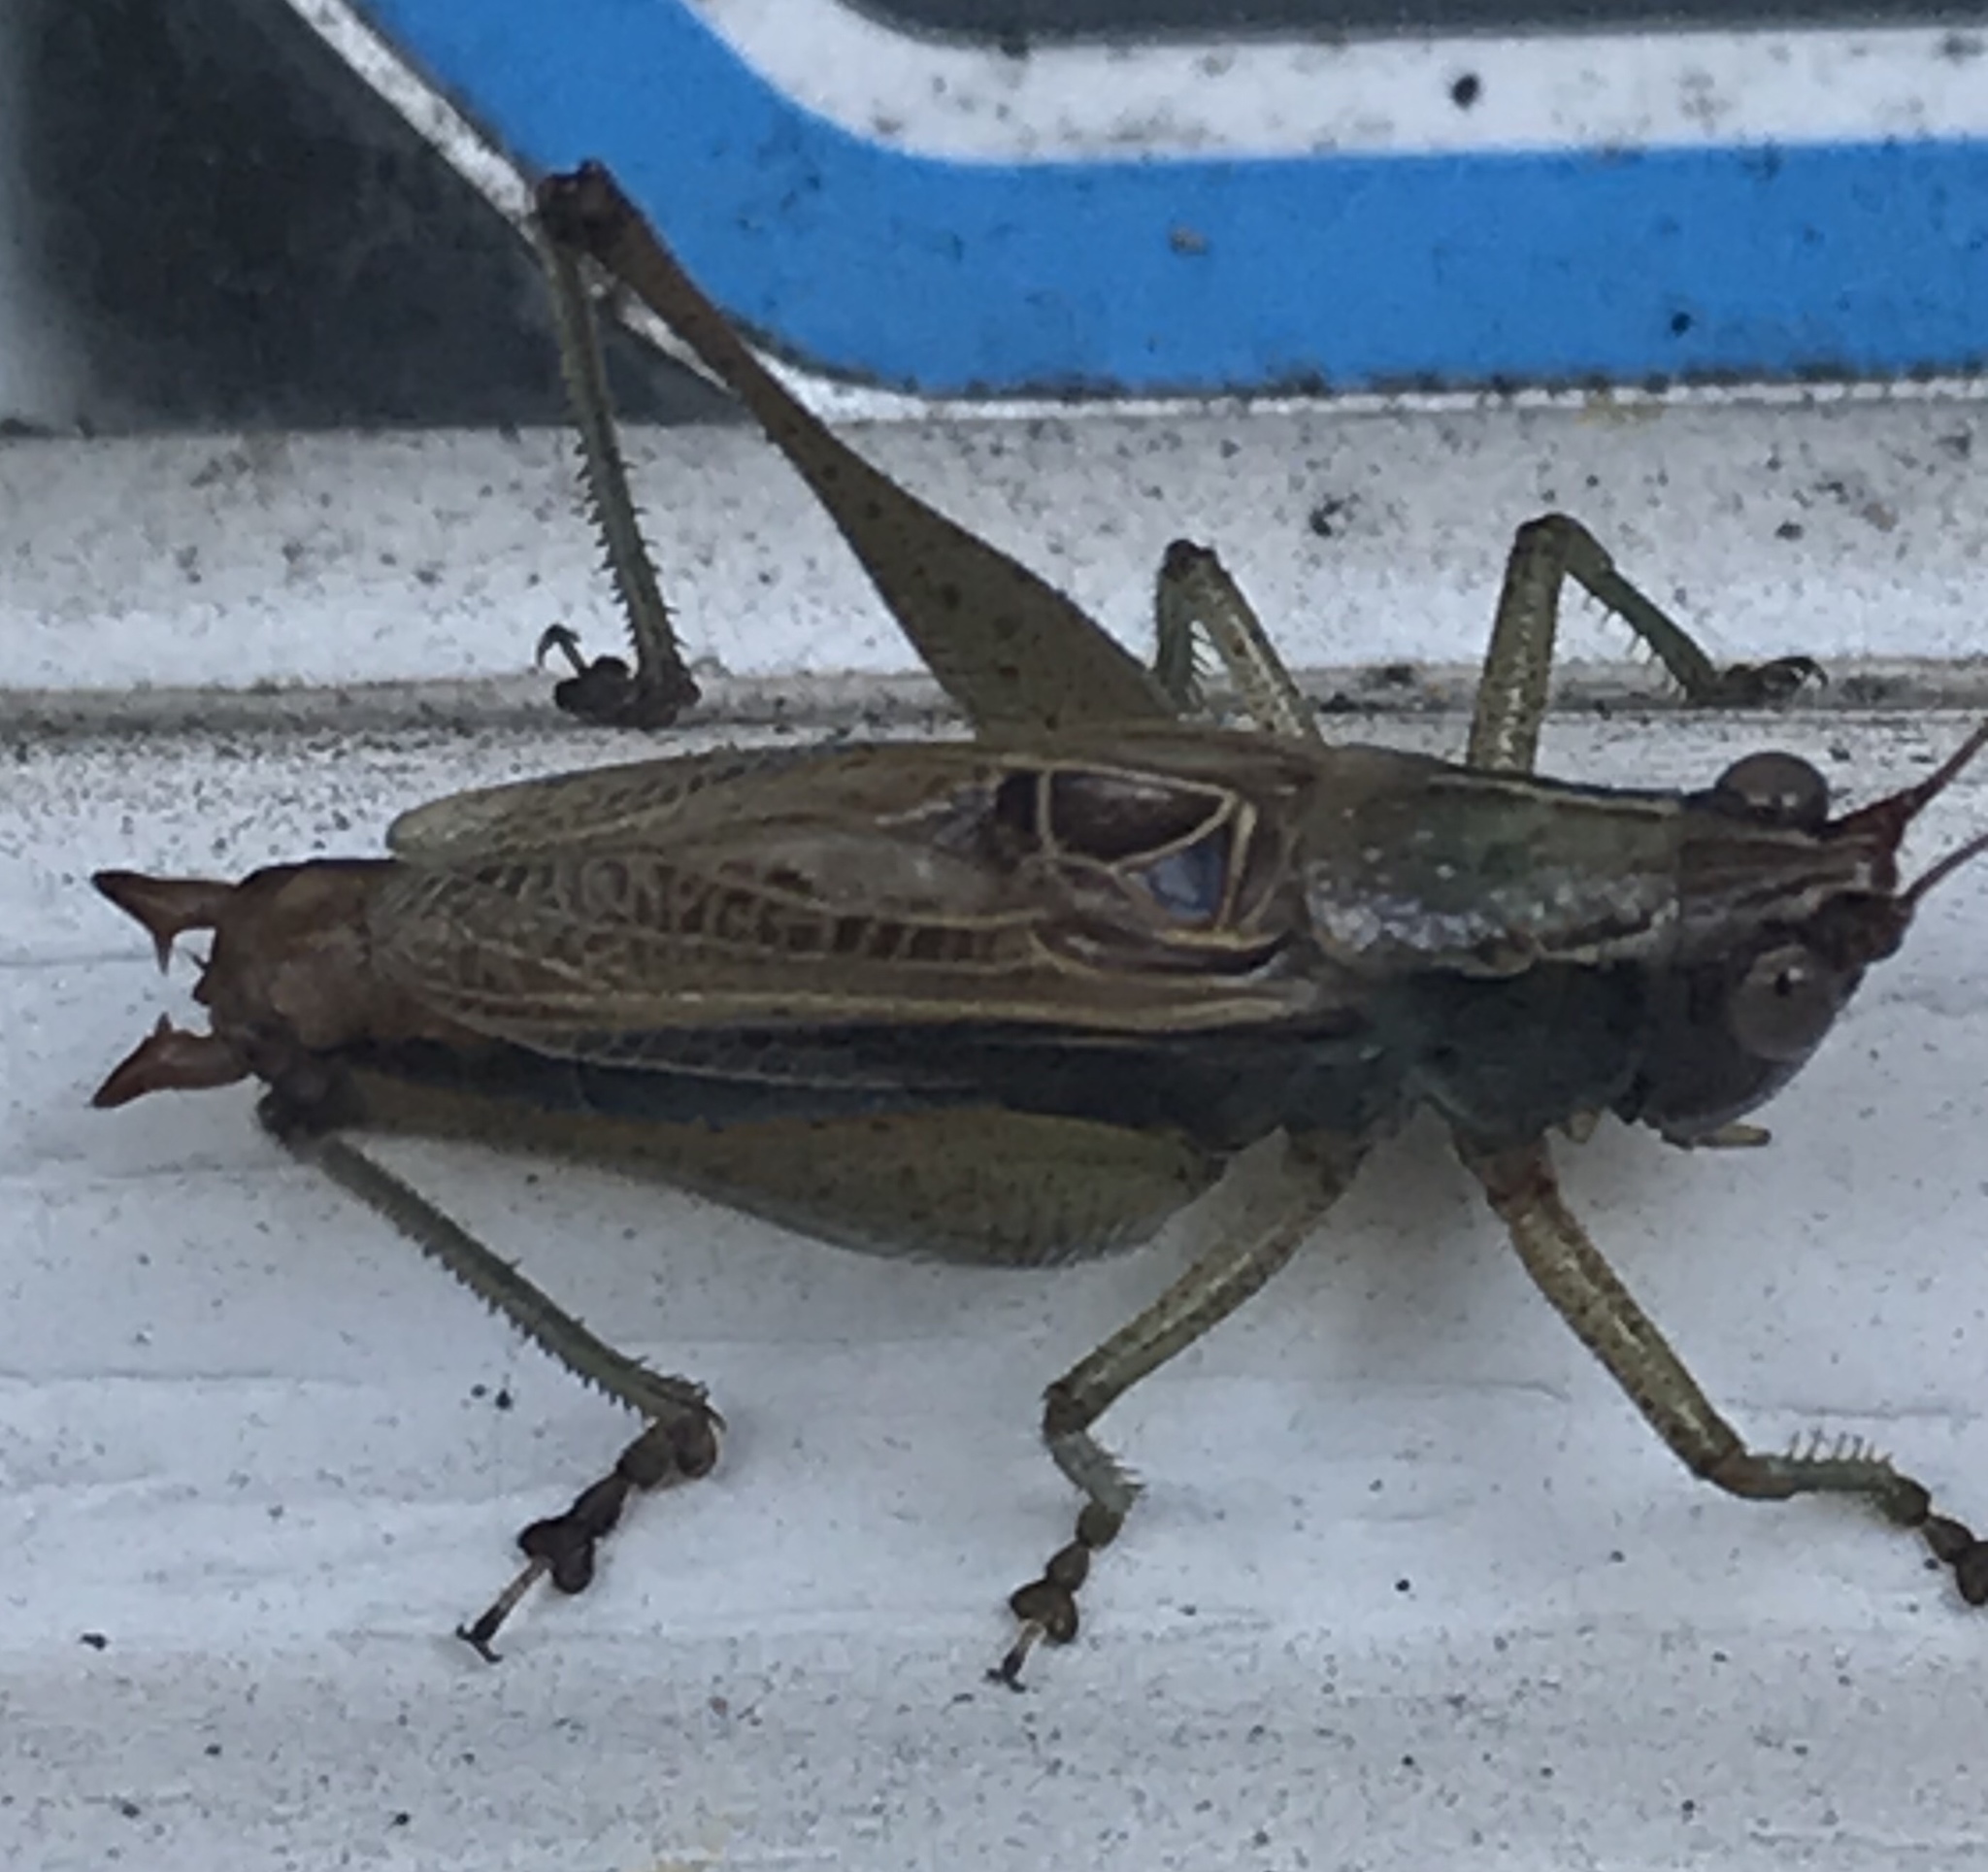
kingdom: Animalia
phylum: Arthropoda
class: Insecta
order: Orthoptera
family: Tettigoniidae
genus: Conocephalus
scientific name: Conocephalus nemoralis
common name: Woodland meadow katydid
